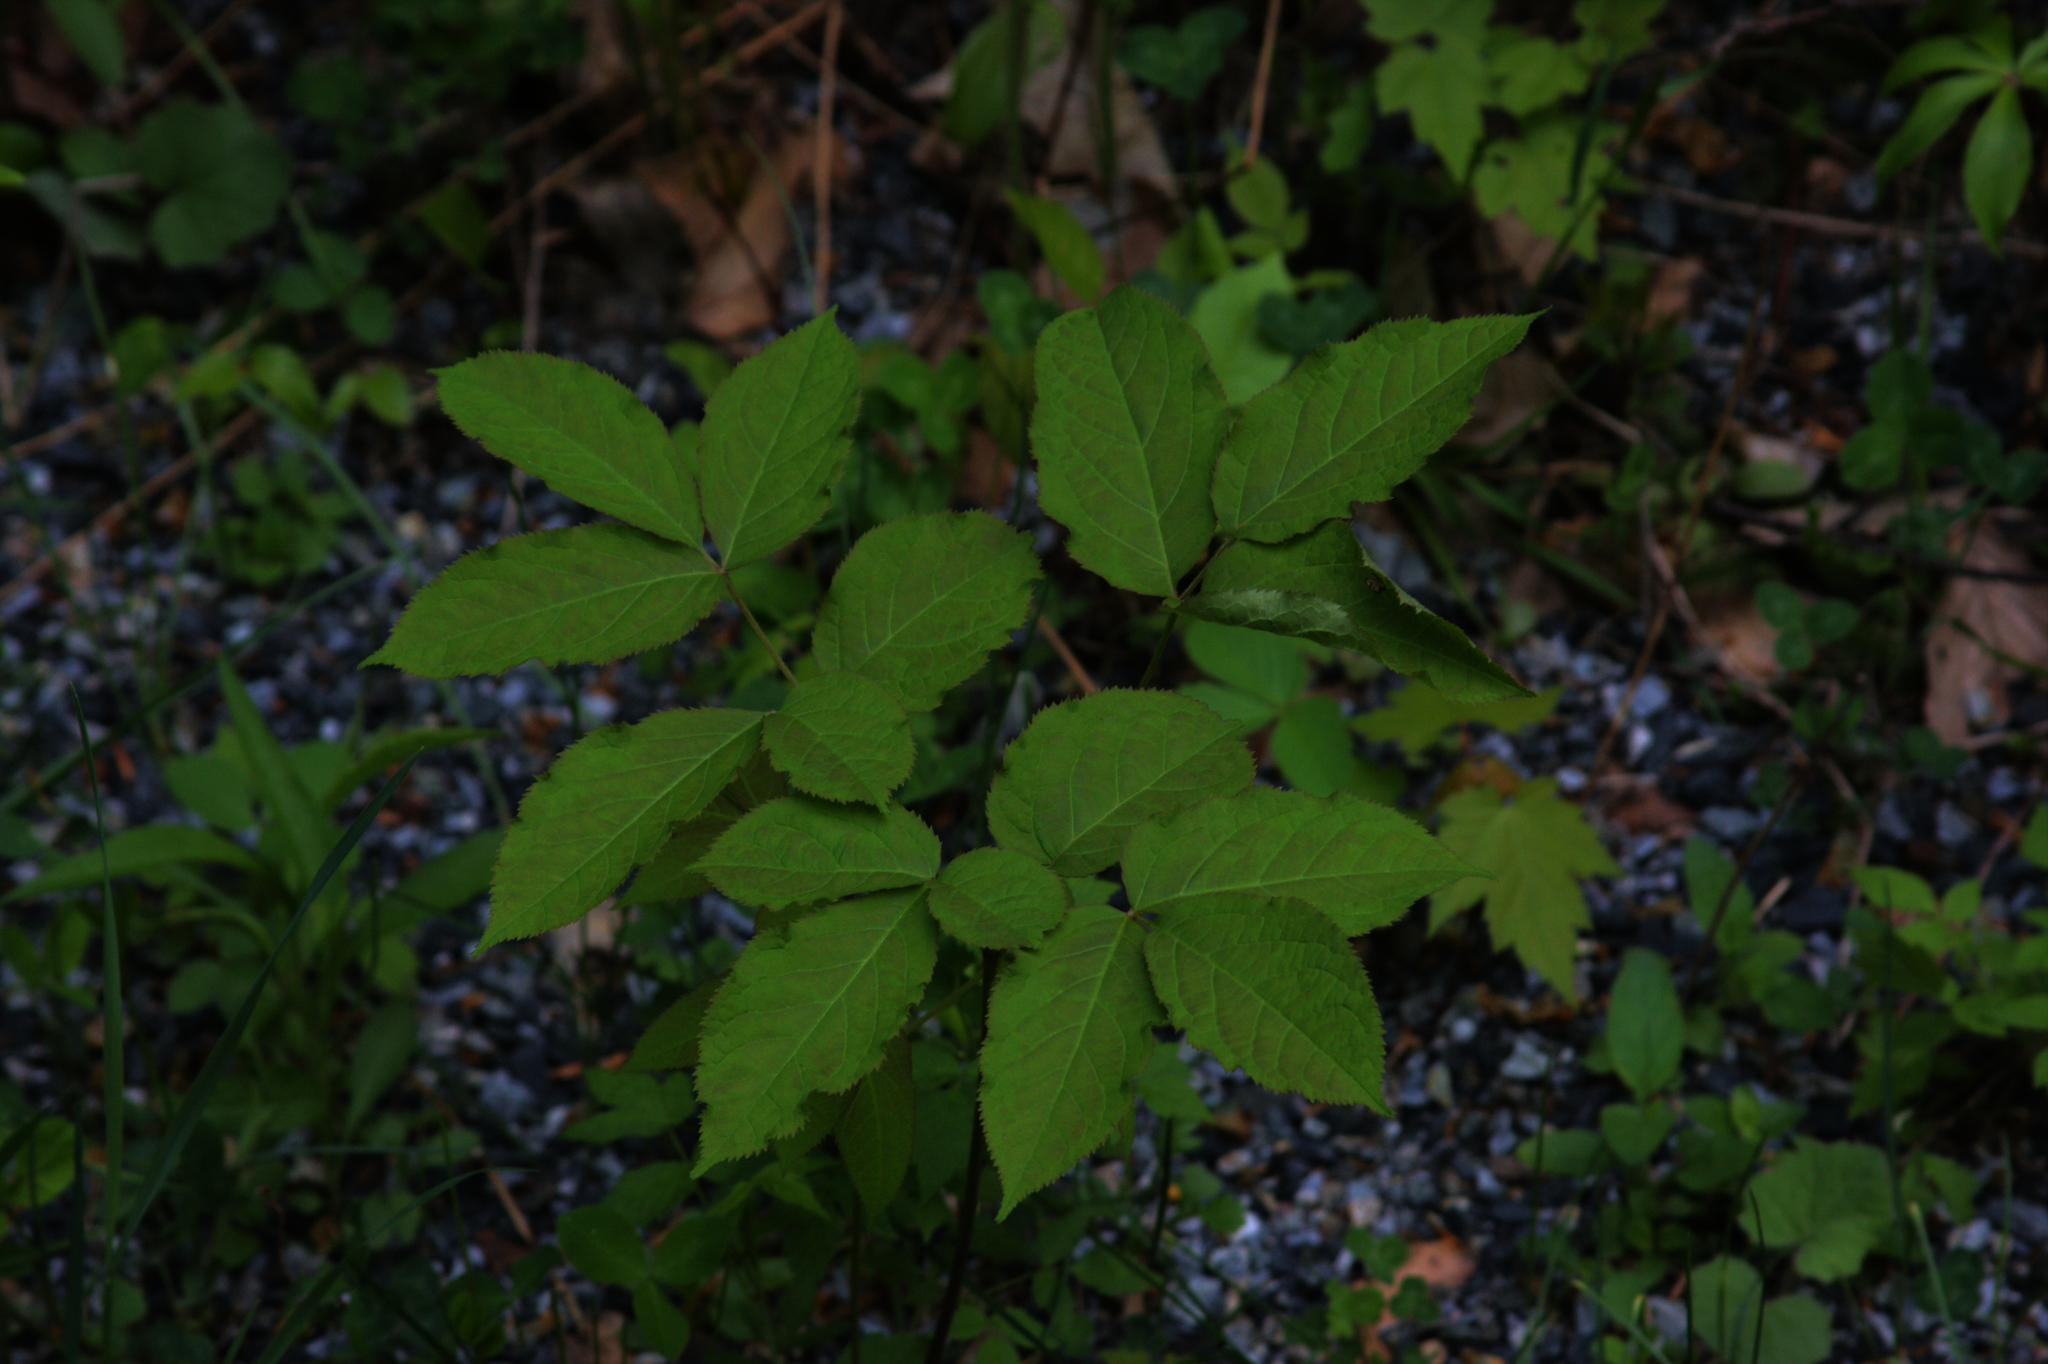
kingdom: Plantae
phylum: Tracheophyta
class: Magnoliopsida
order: Apiales
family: Araliaceae
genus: Aralia
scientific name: Aralia nudicaulis
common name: Wild sarsaparilla
